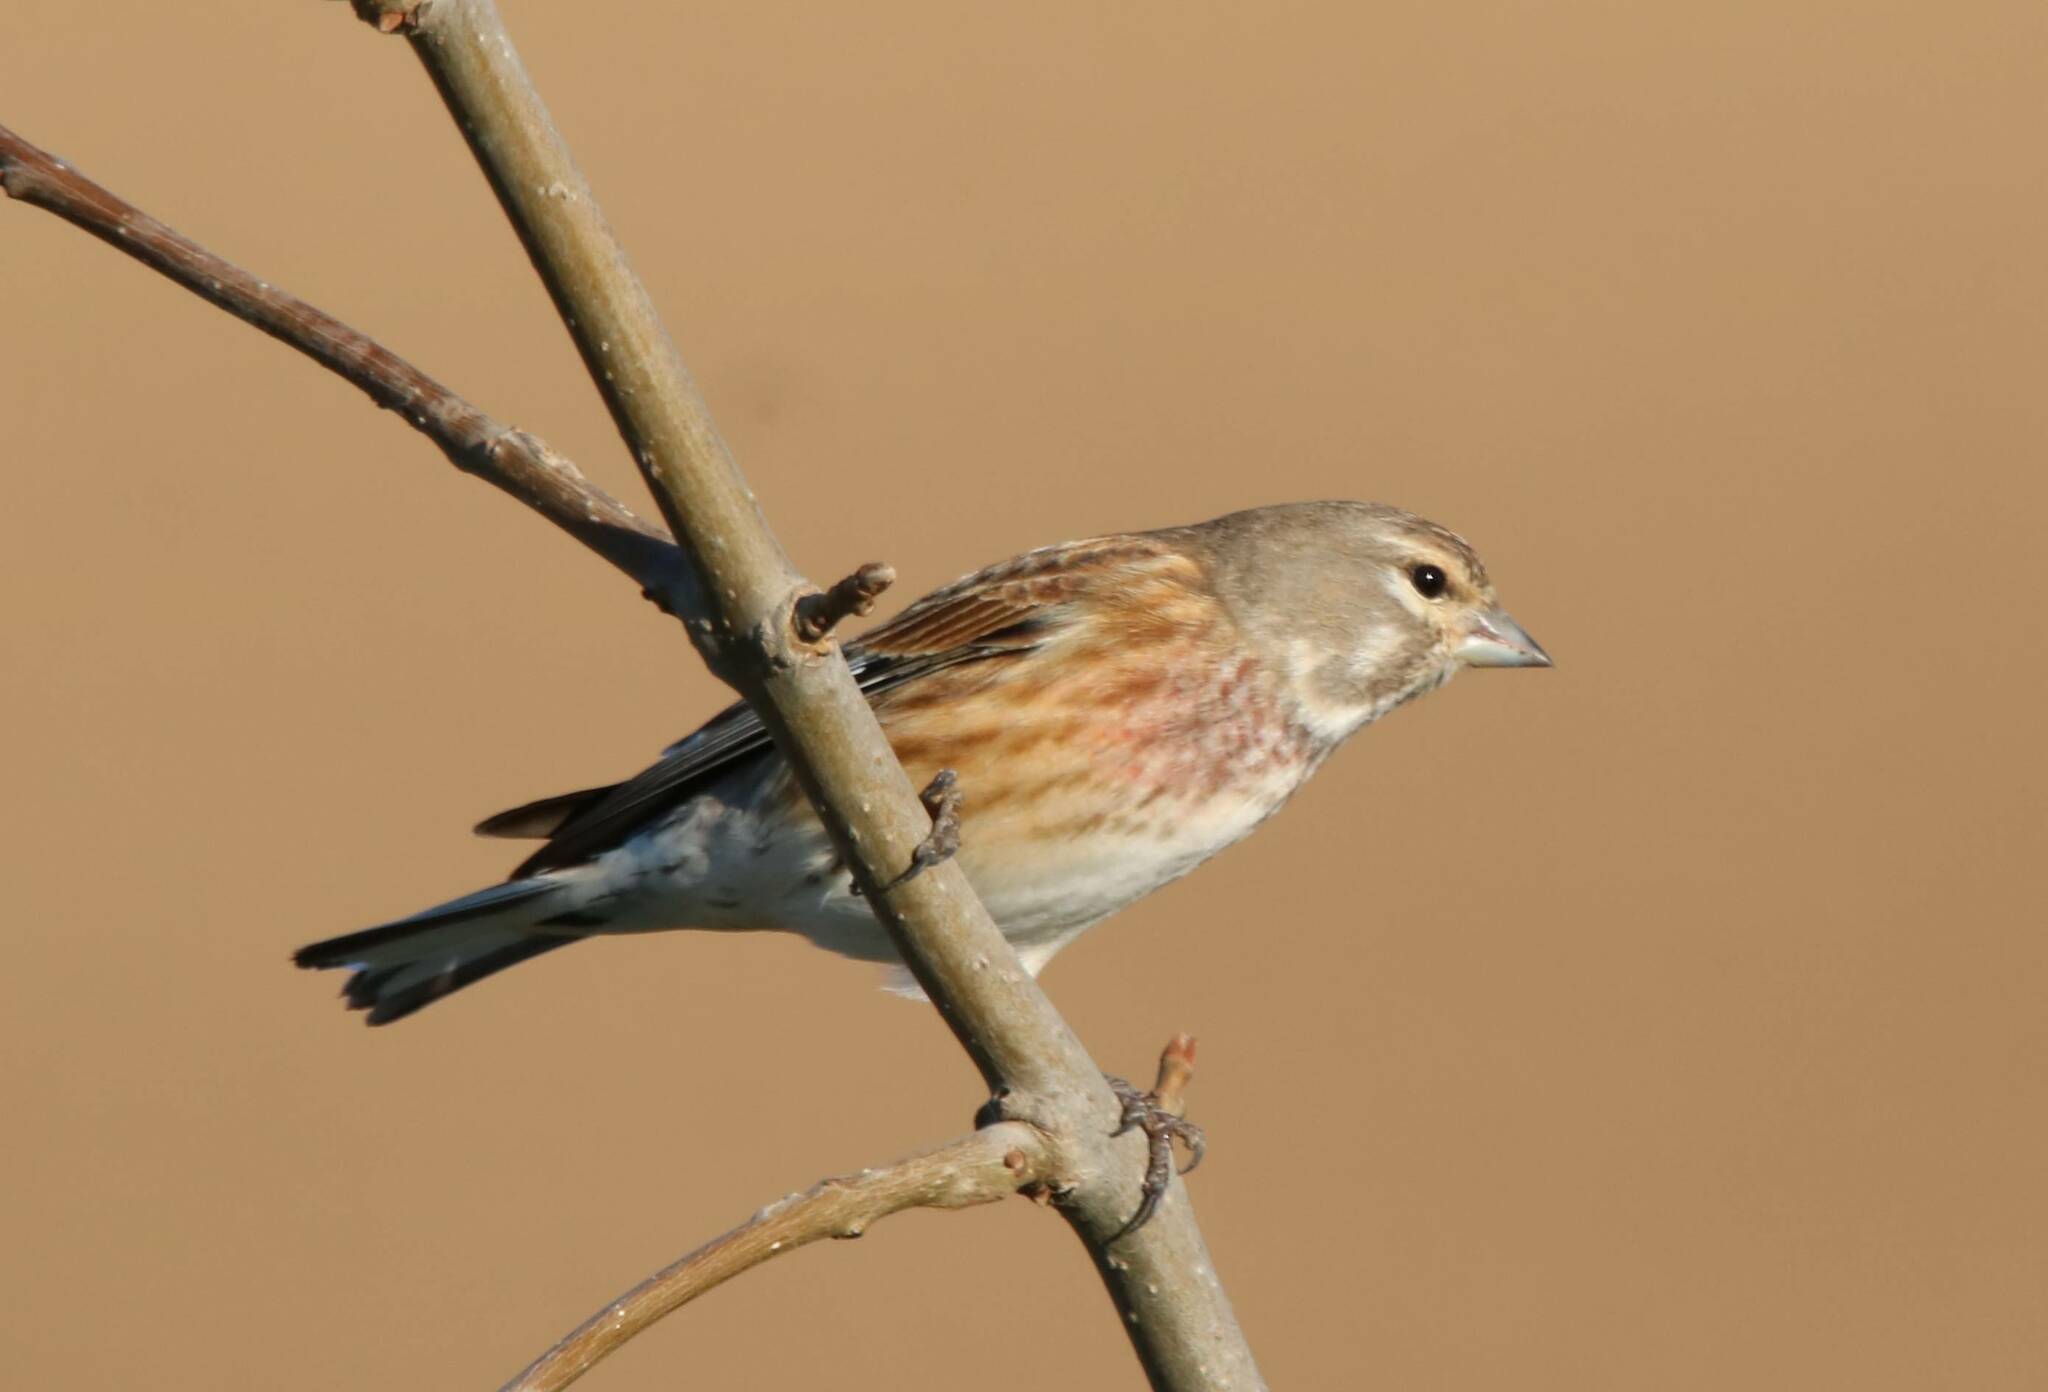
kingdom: Animalia
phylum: Chordata
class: Aves
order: Passeriformes
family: Fringillidae
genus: Linaria
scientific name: Linaria cannabina
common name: Common linnet
